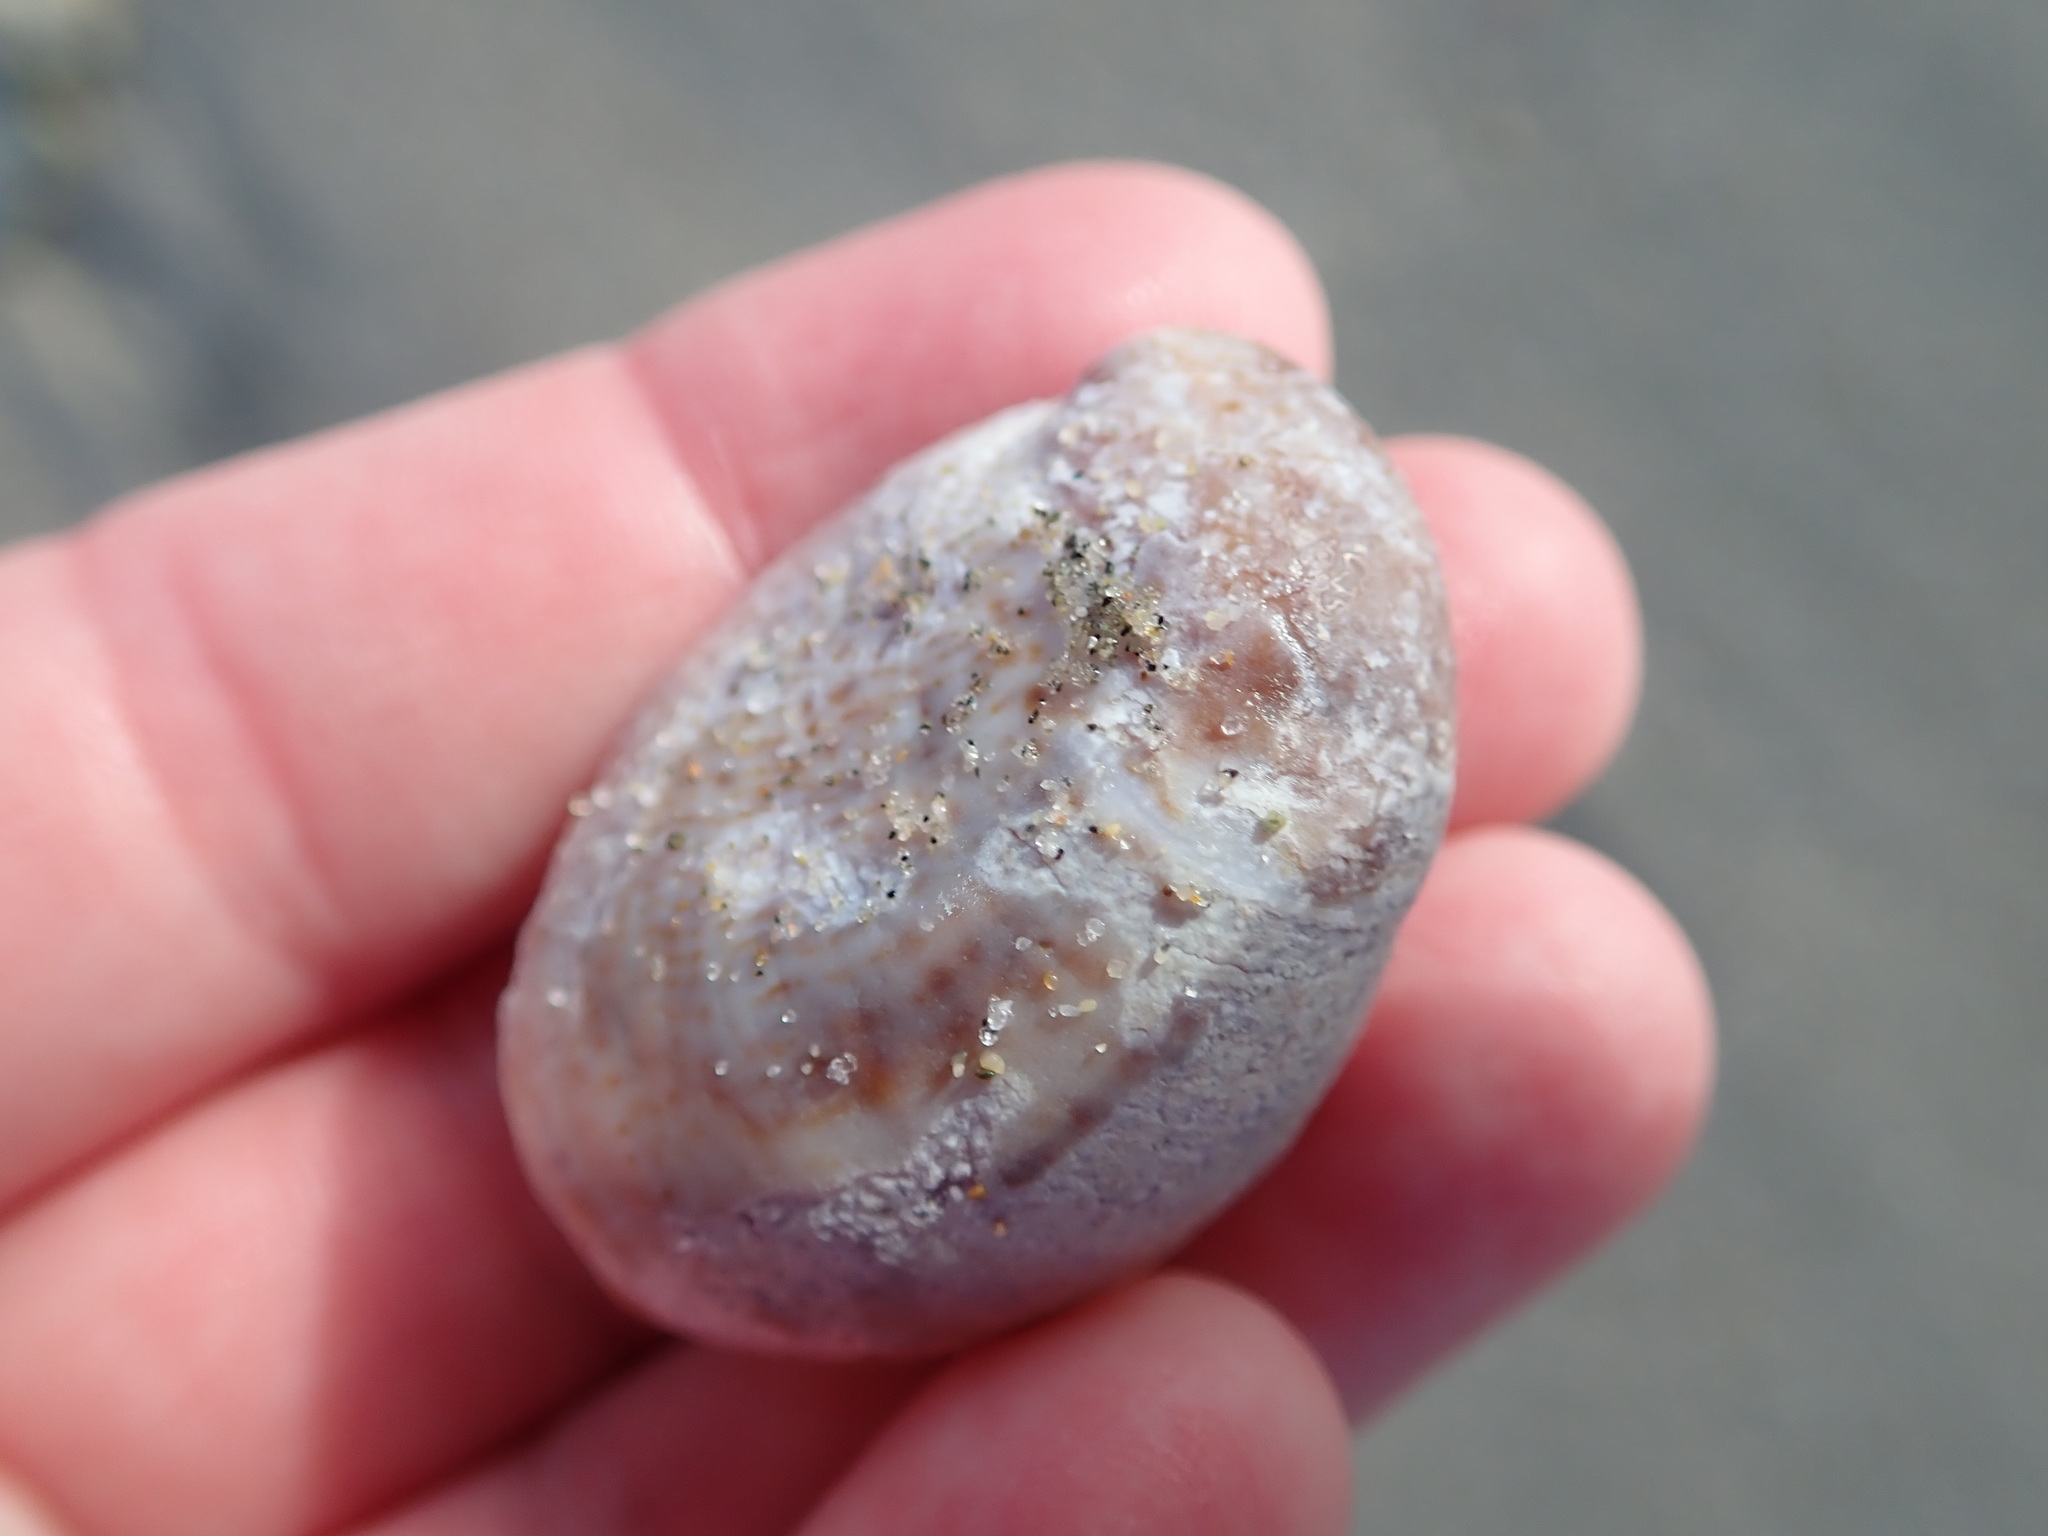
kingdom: Animalia
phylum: Mollusca
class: Gastropoda
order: Littorinimorpha
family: Calyptraeidae
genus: Crepidula
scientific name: Crepidula fornicata
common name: Slipper limpet
